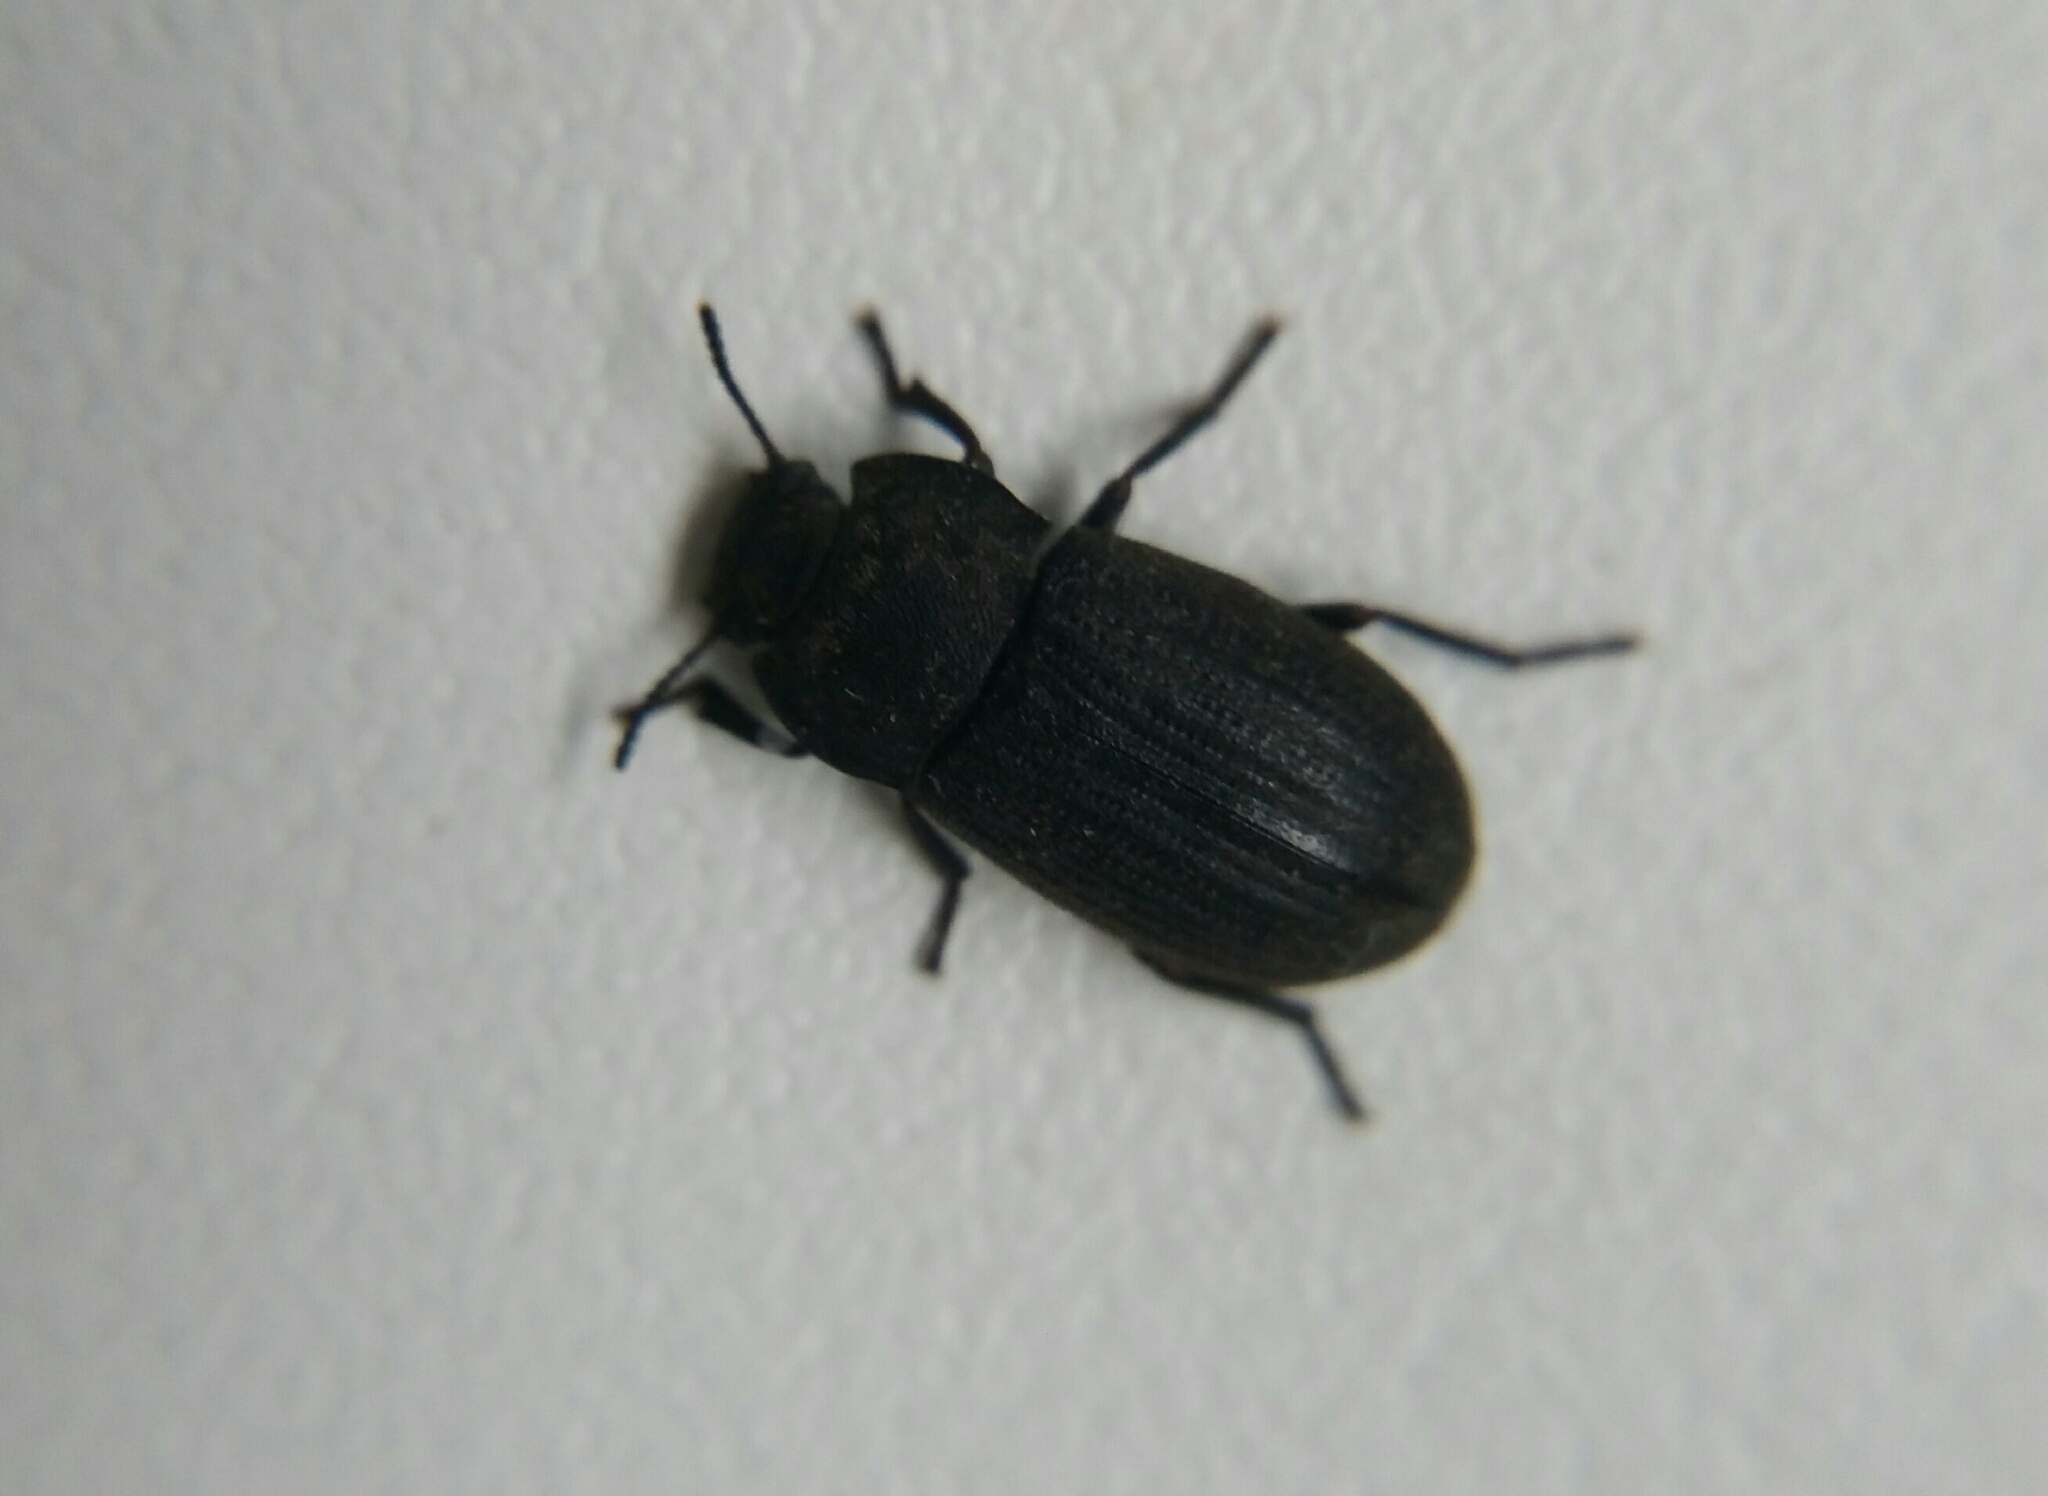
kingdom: Animalia
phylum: Arthropoda
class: Insecta
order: Coleoptera
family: Tenebrionidae
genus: Gonocephalum
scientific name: Gonocephalum granulatum
